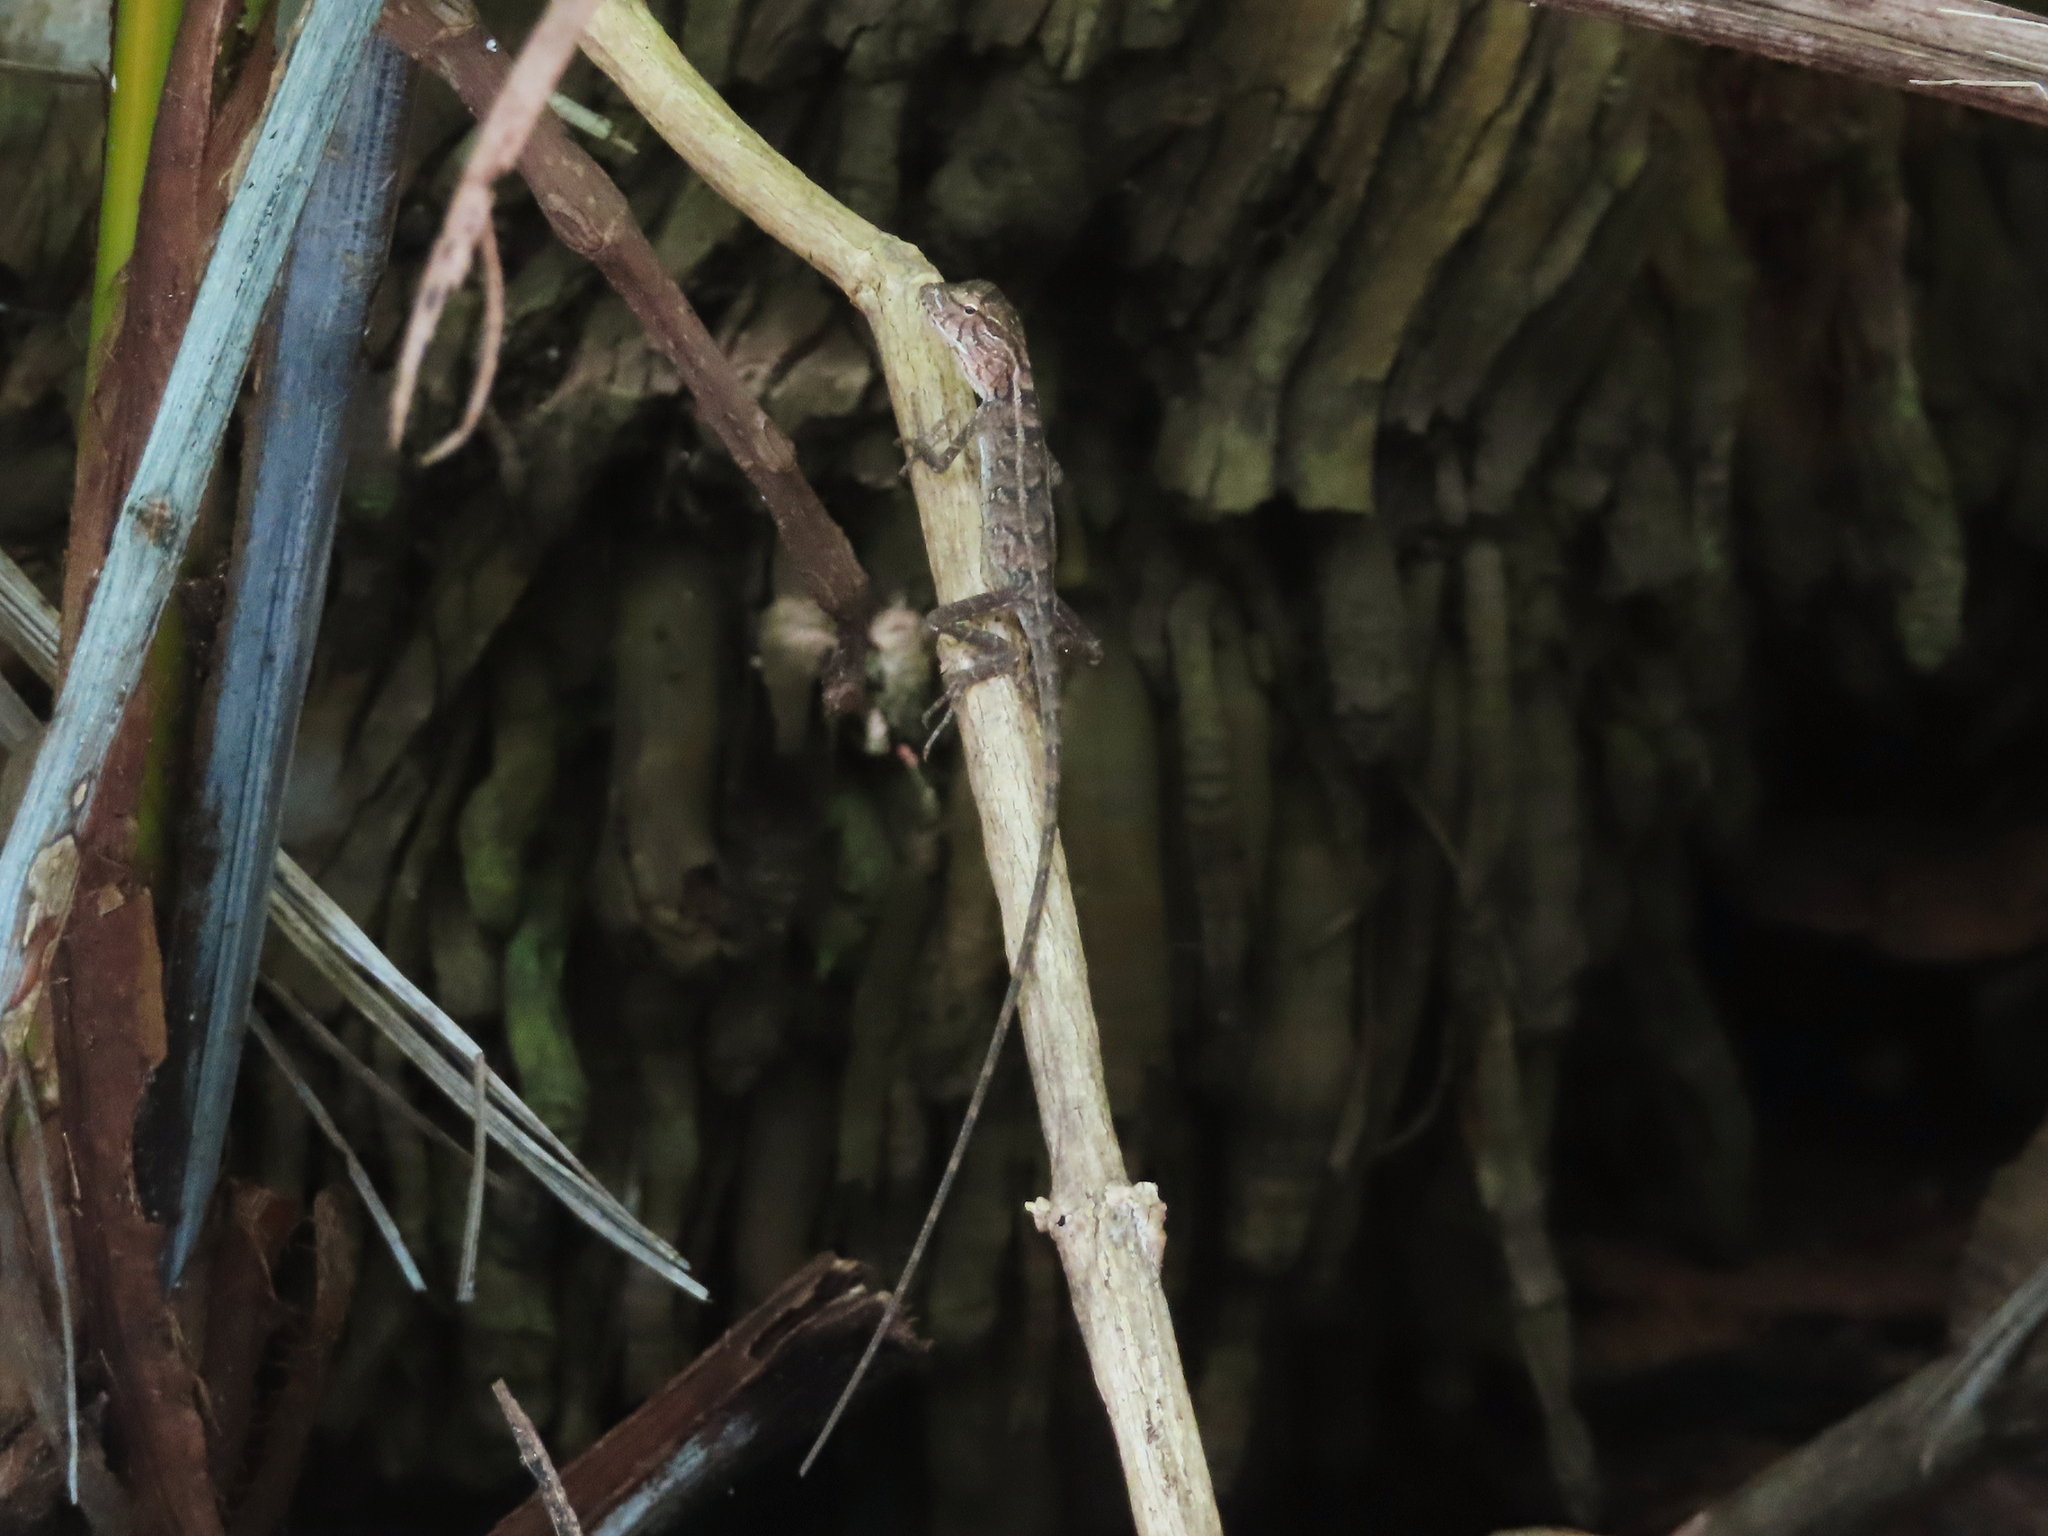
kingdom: Animalia
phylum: Chordata
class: Squamata
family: Agamidae
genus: Calotes
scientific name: Calotes versicolor
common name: Oriental garden lizard
